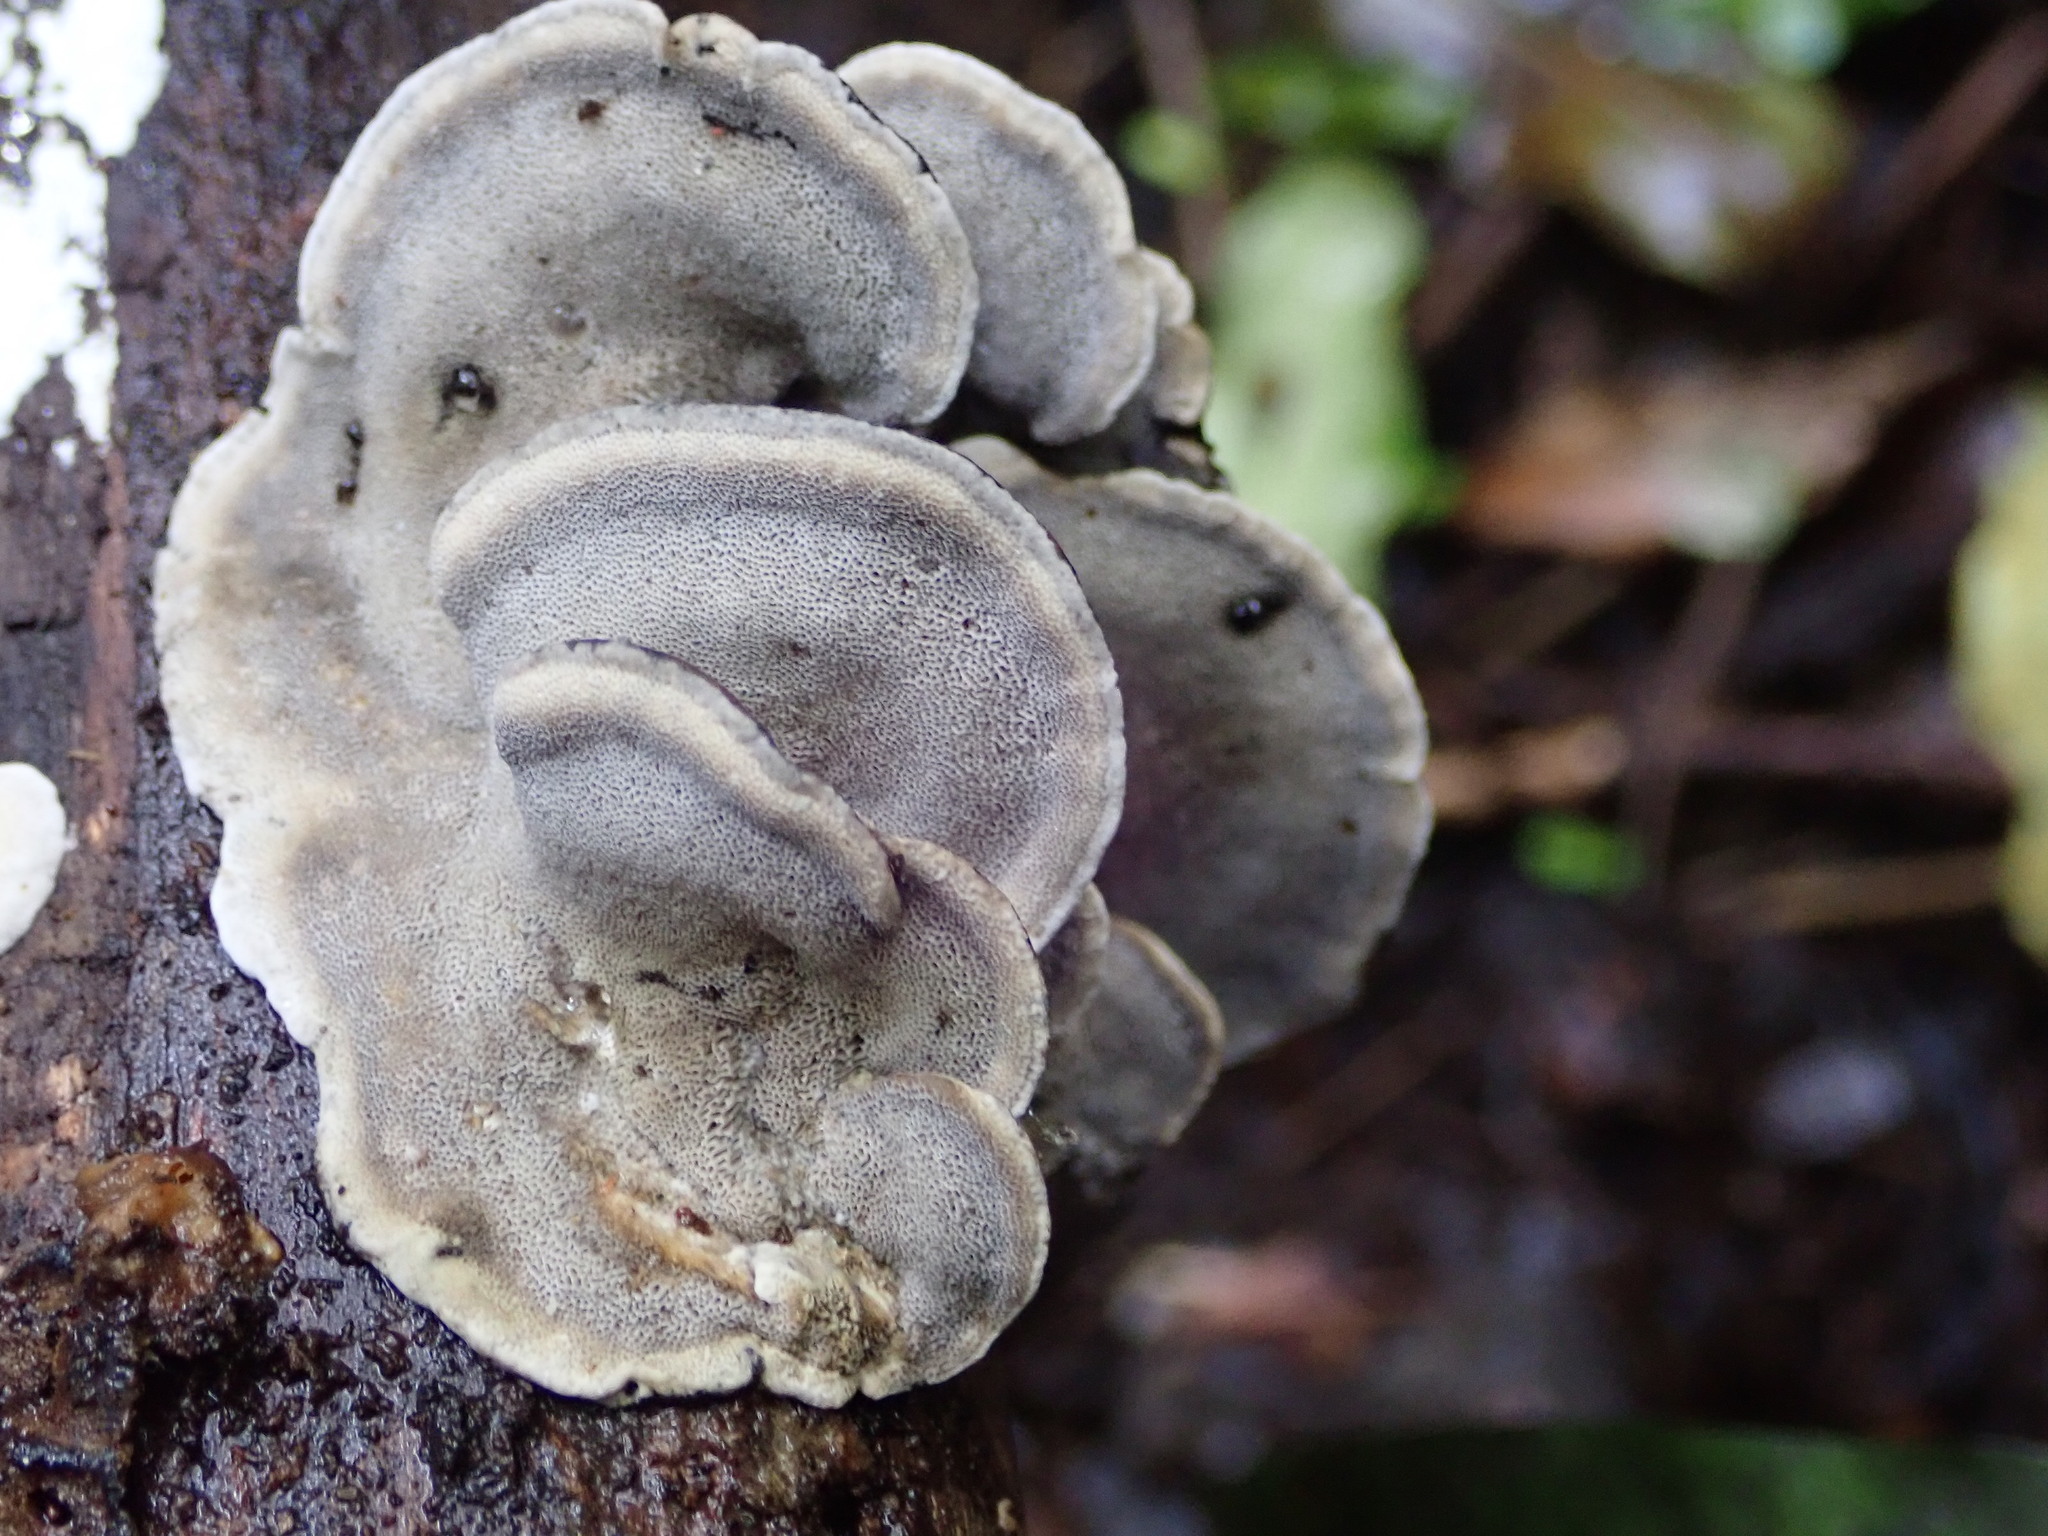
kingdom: Fungi
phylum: Basidiomycota
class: Agaricomycetes
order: Polyporales
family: Phanerochaetaceae
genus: Bjerkandera
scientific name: Bjerkandera adusta
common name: Smoky bracket
